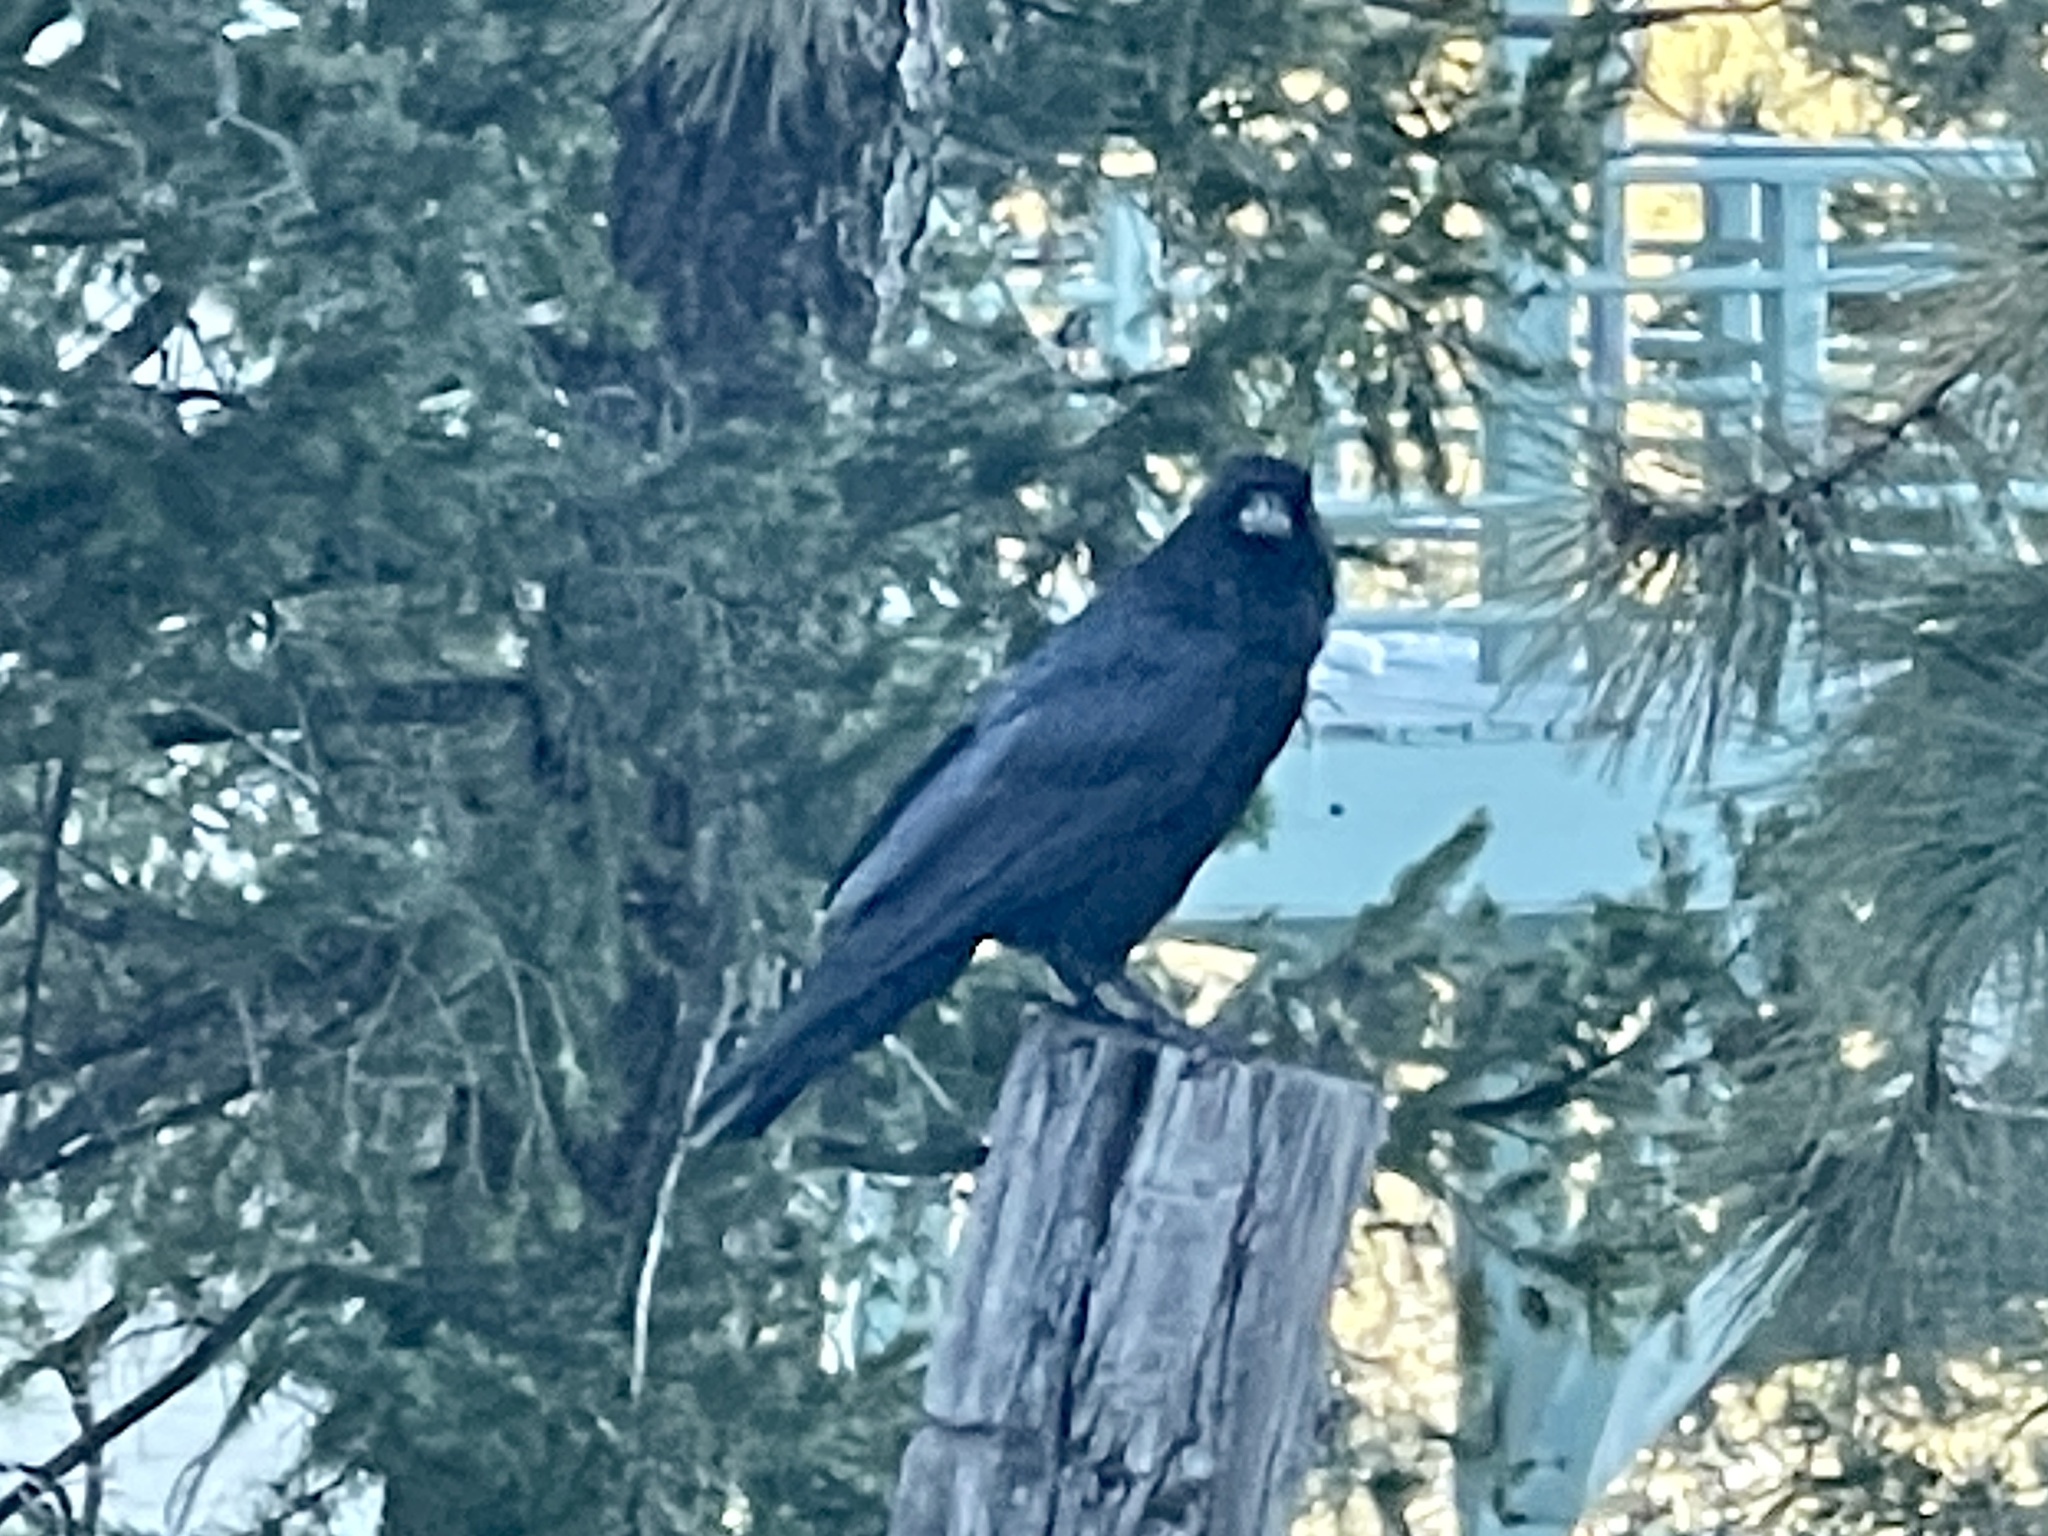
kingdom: Animalia
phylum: Chordata
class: Aves
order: Passeriformes
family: Corvidae
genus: Corvus
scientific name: Corvus corax
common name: Common raven
